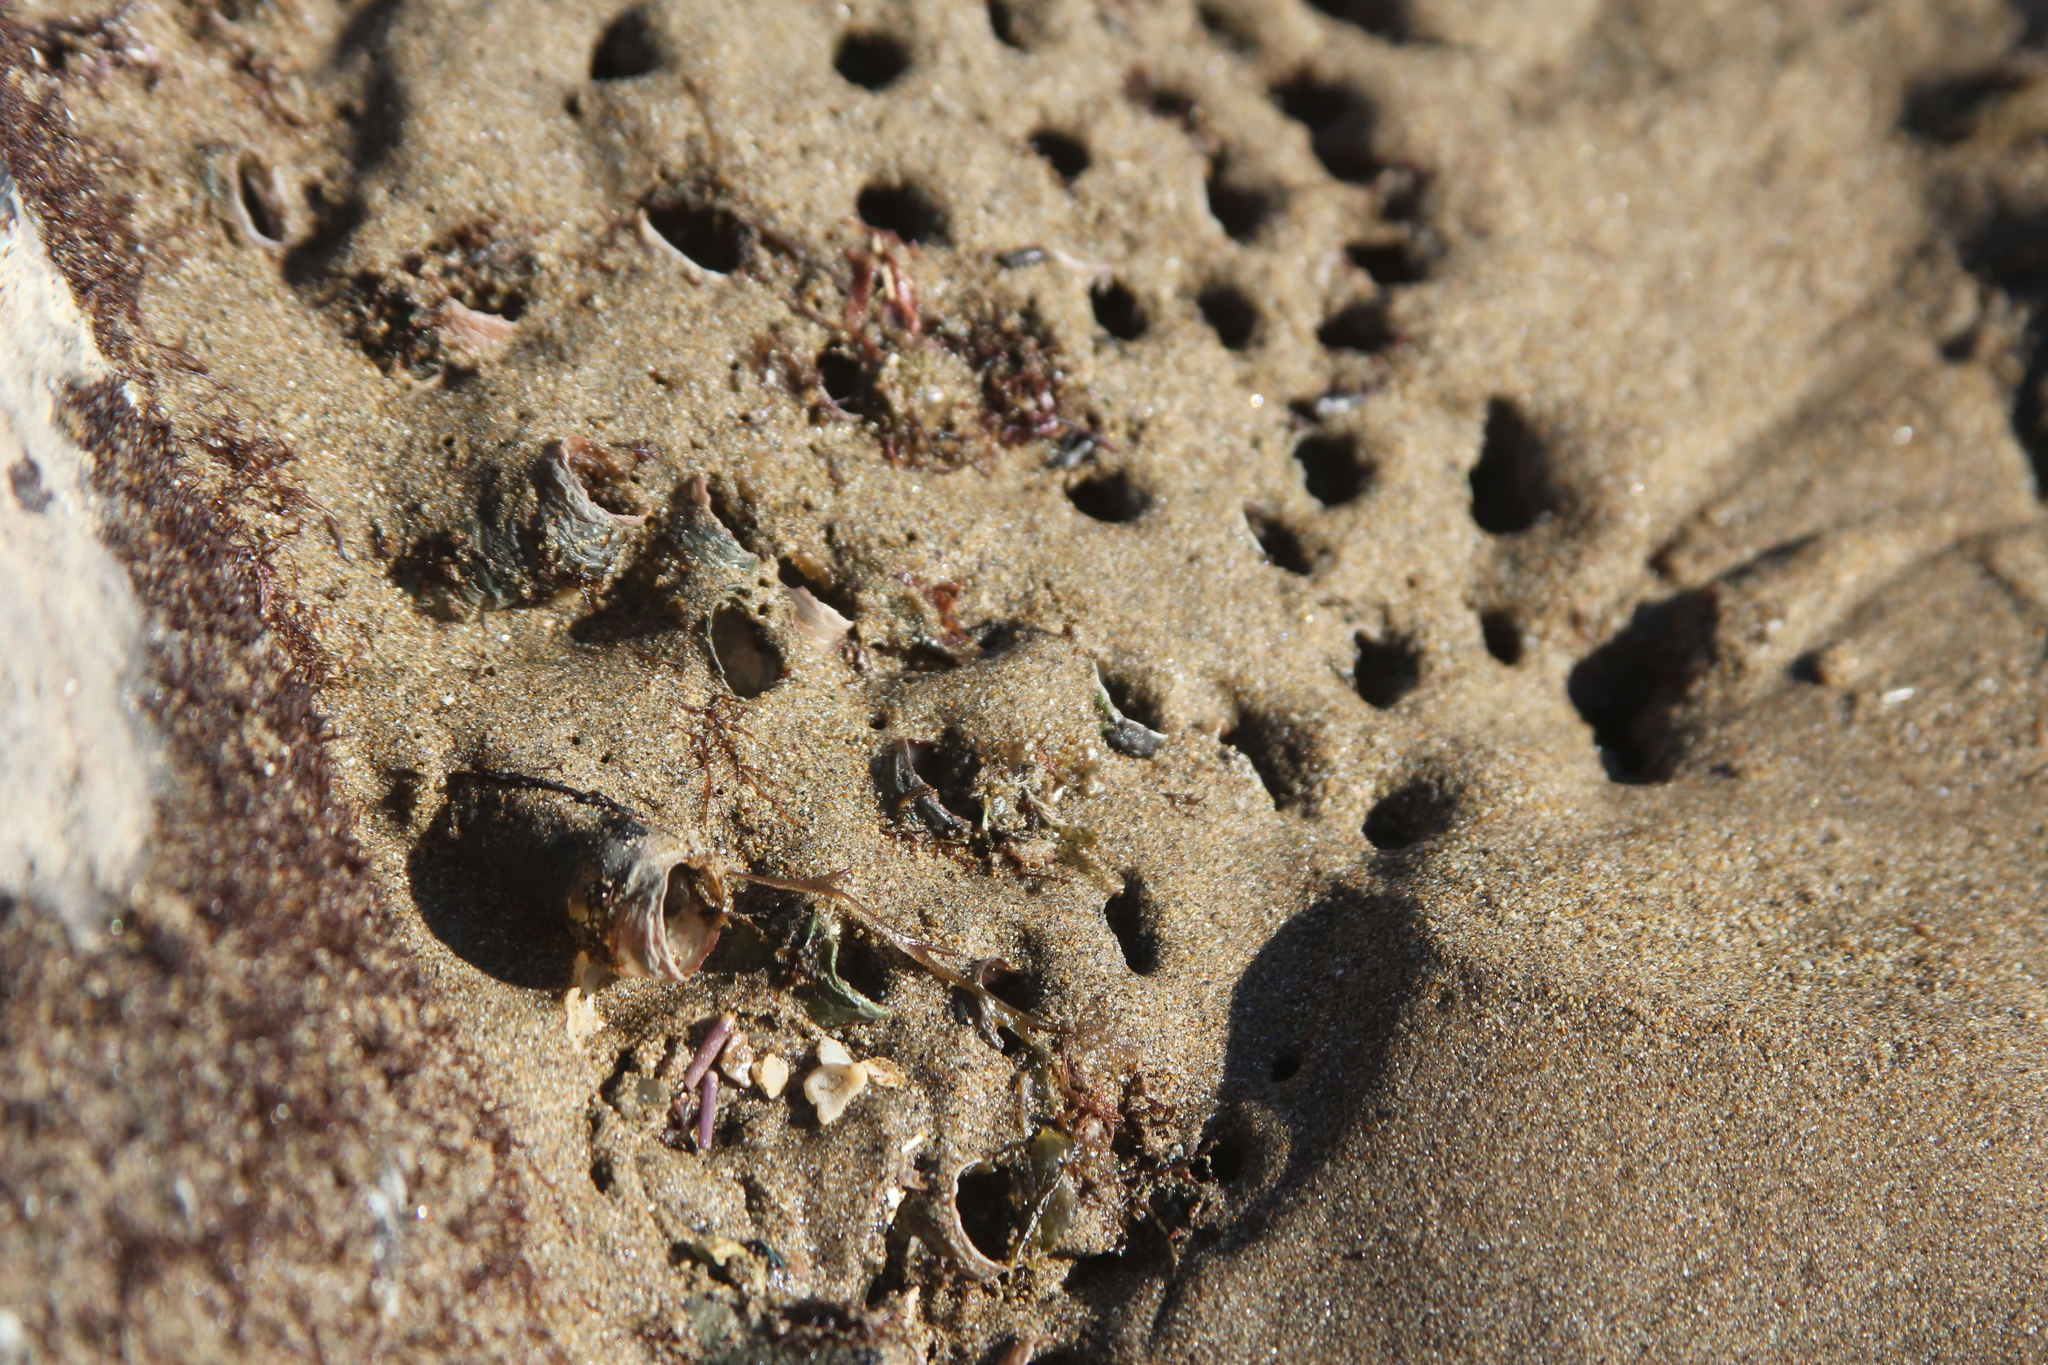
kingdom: Animalia
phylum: Mollusca
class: Gastropoda
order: Littorinimorpha
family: Vermetidae
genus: Thylacodes
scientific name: Thylacodes squamigerus
